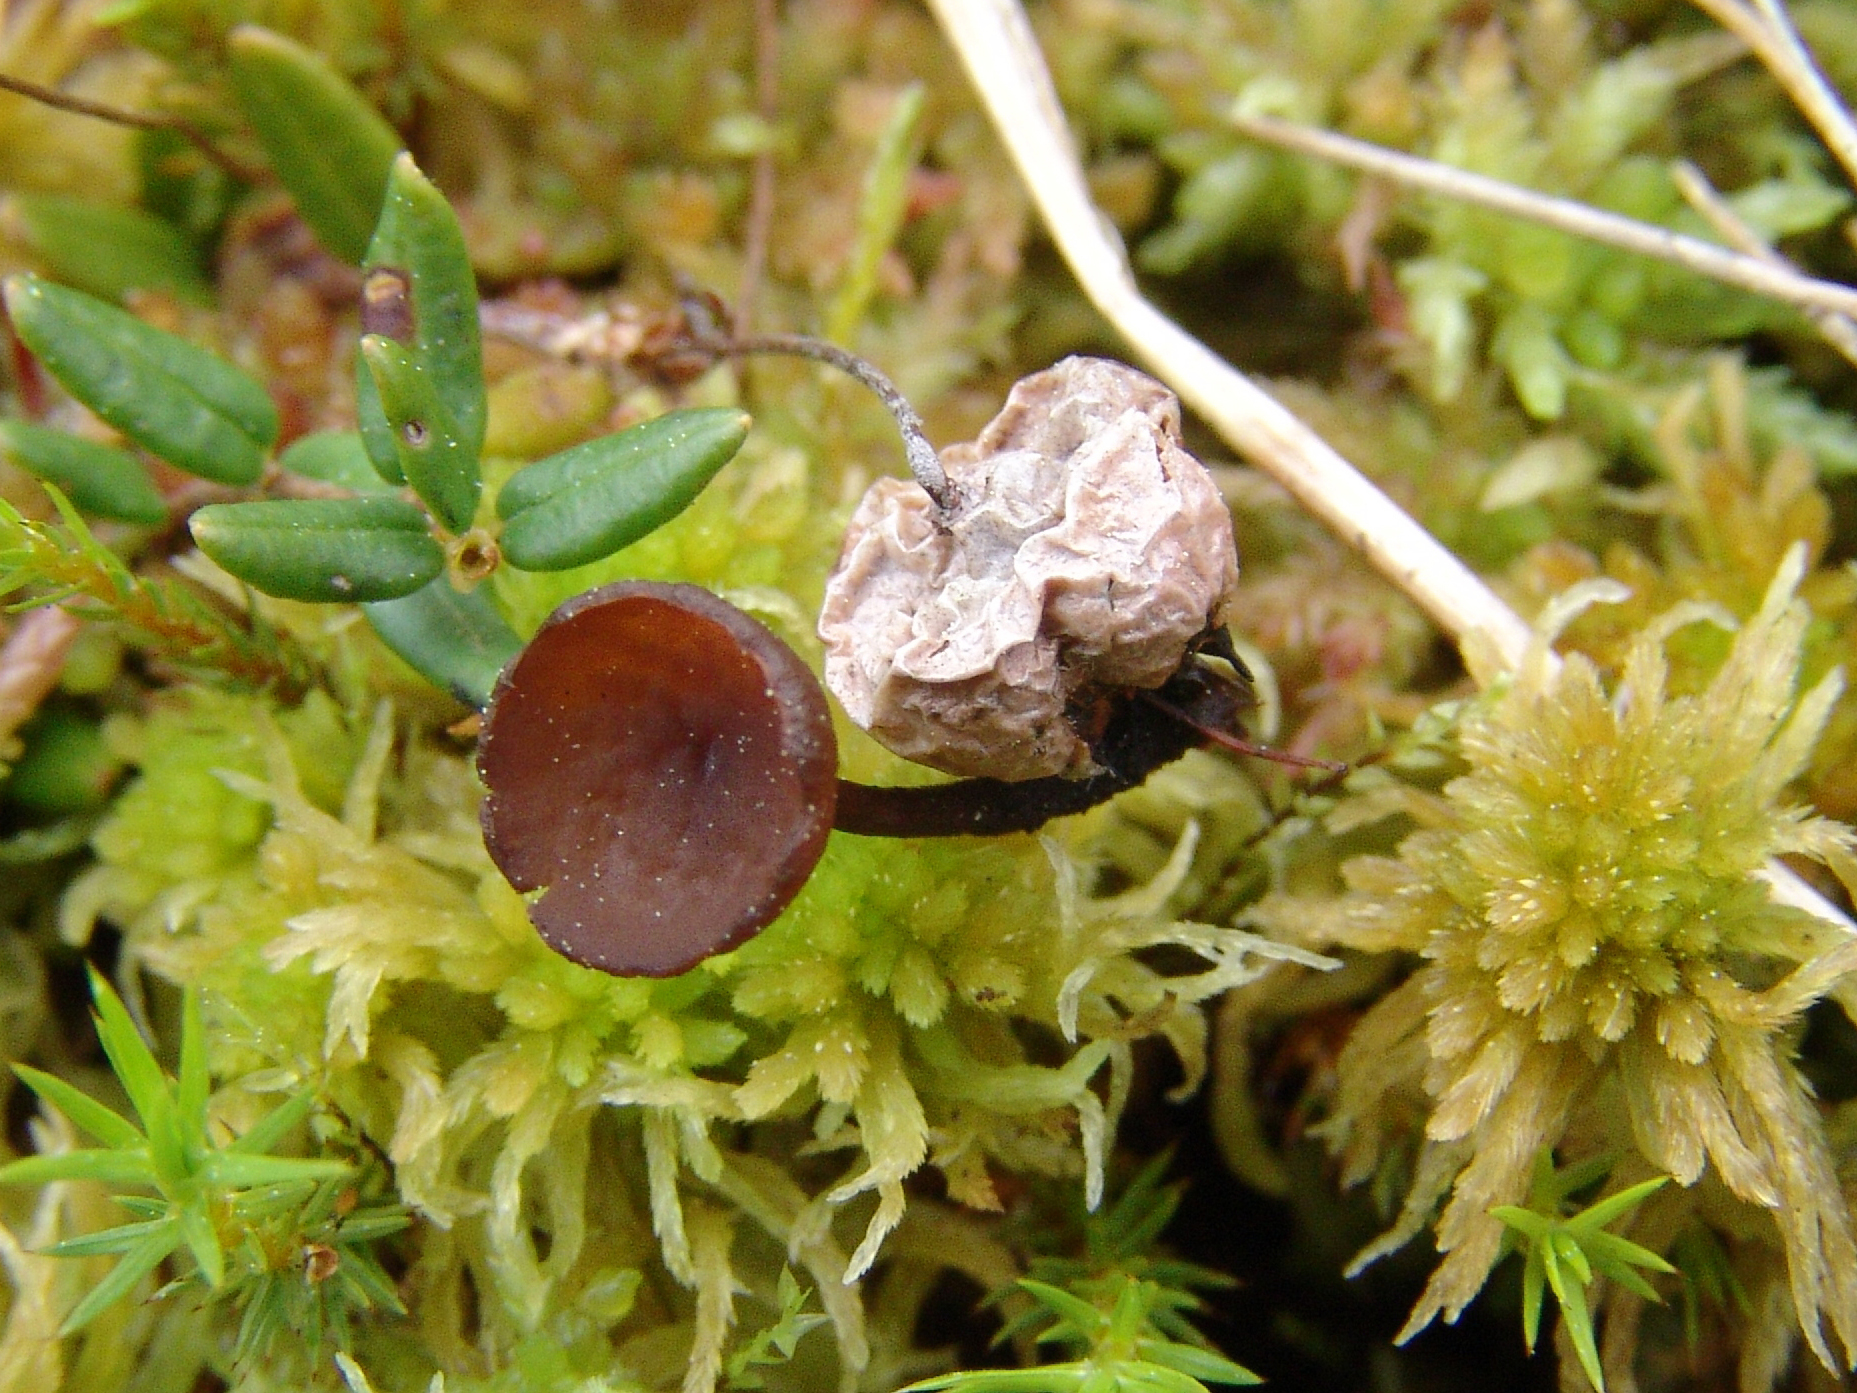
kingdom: Fungi
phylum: Ascomycota
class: Leotiomycetes
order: Helotiales
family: Sclerotiniaceae
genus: Monilinia
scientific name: Monilinia oxycocci
